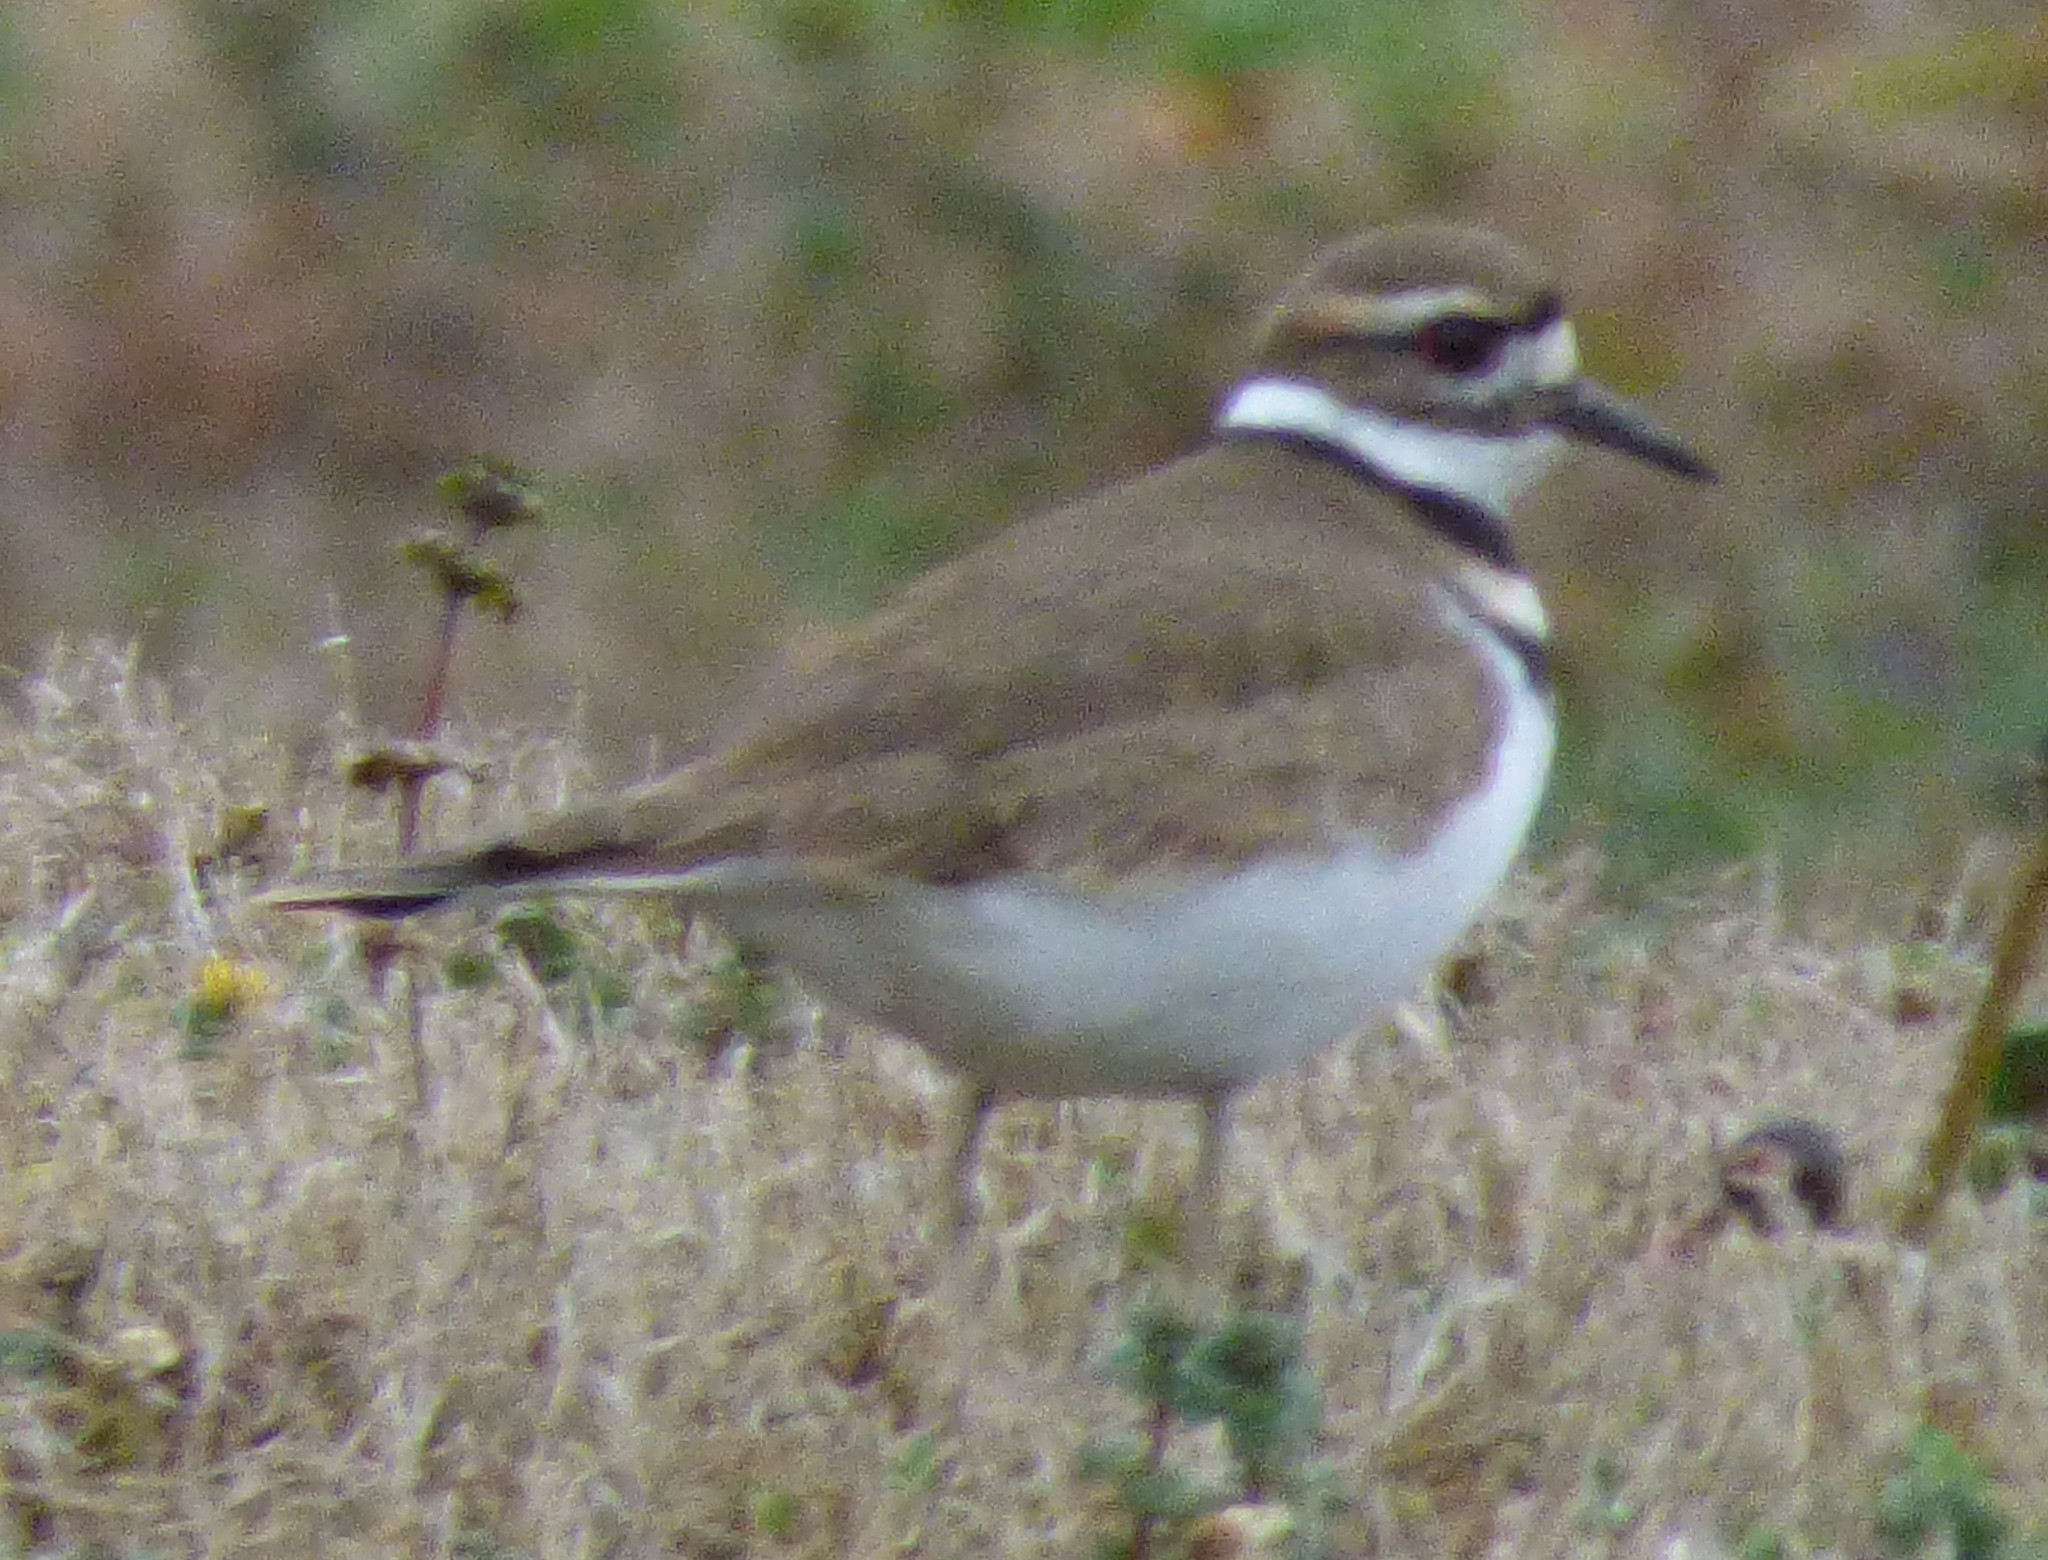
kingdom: Animalia
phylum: Chordata
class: Aves
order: Charadriiformes
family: Charadriidae
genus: Charadrius
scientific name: Charadrius vociferus
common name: Killdeer
